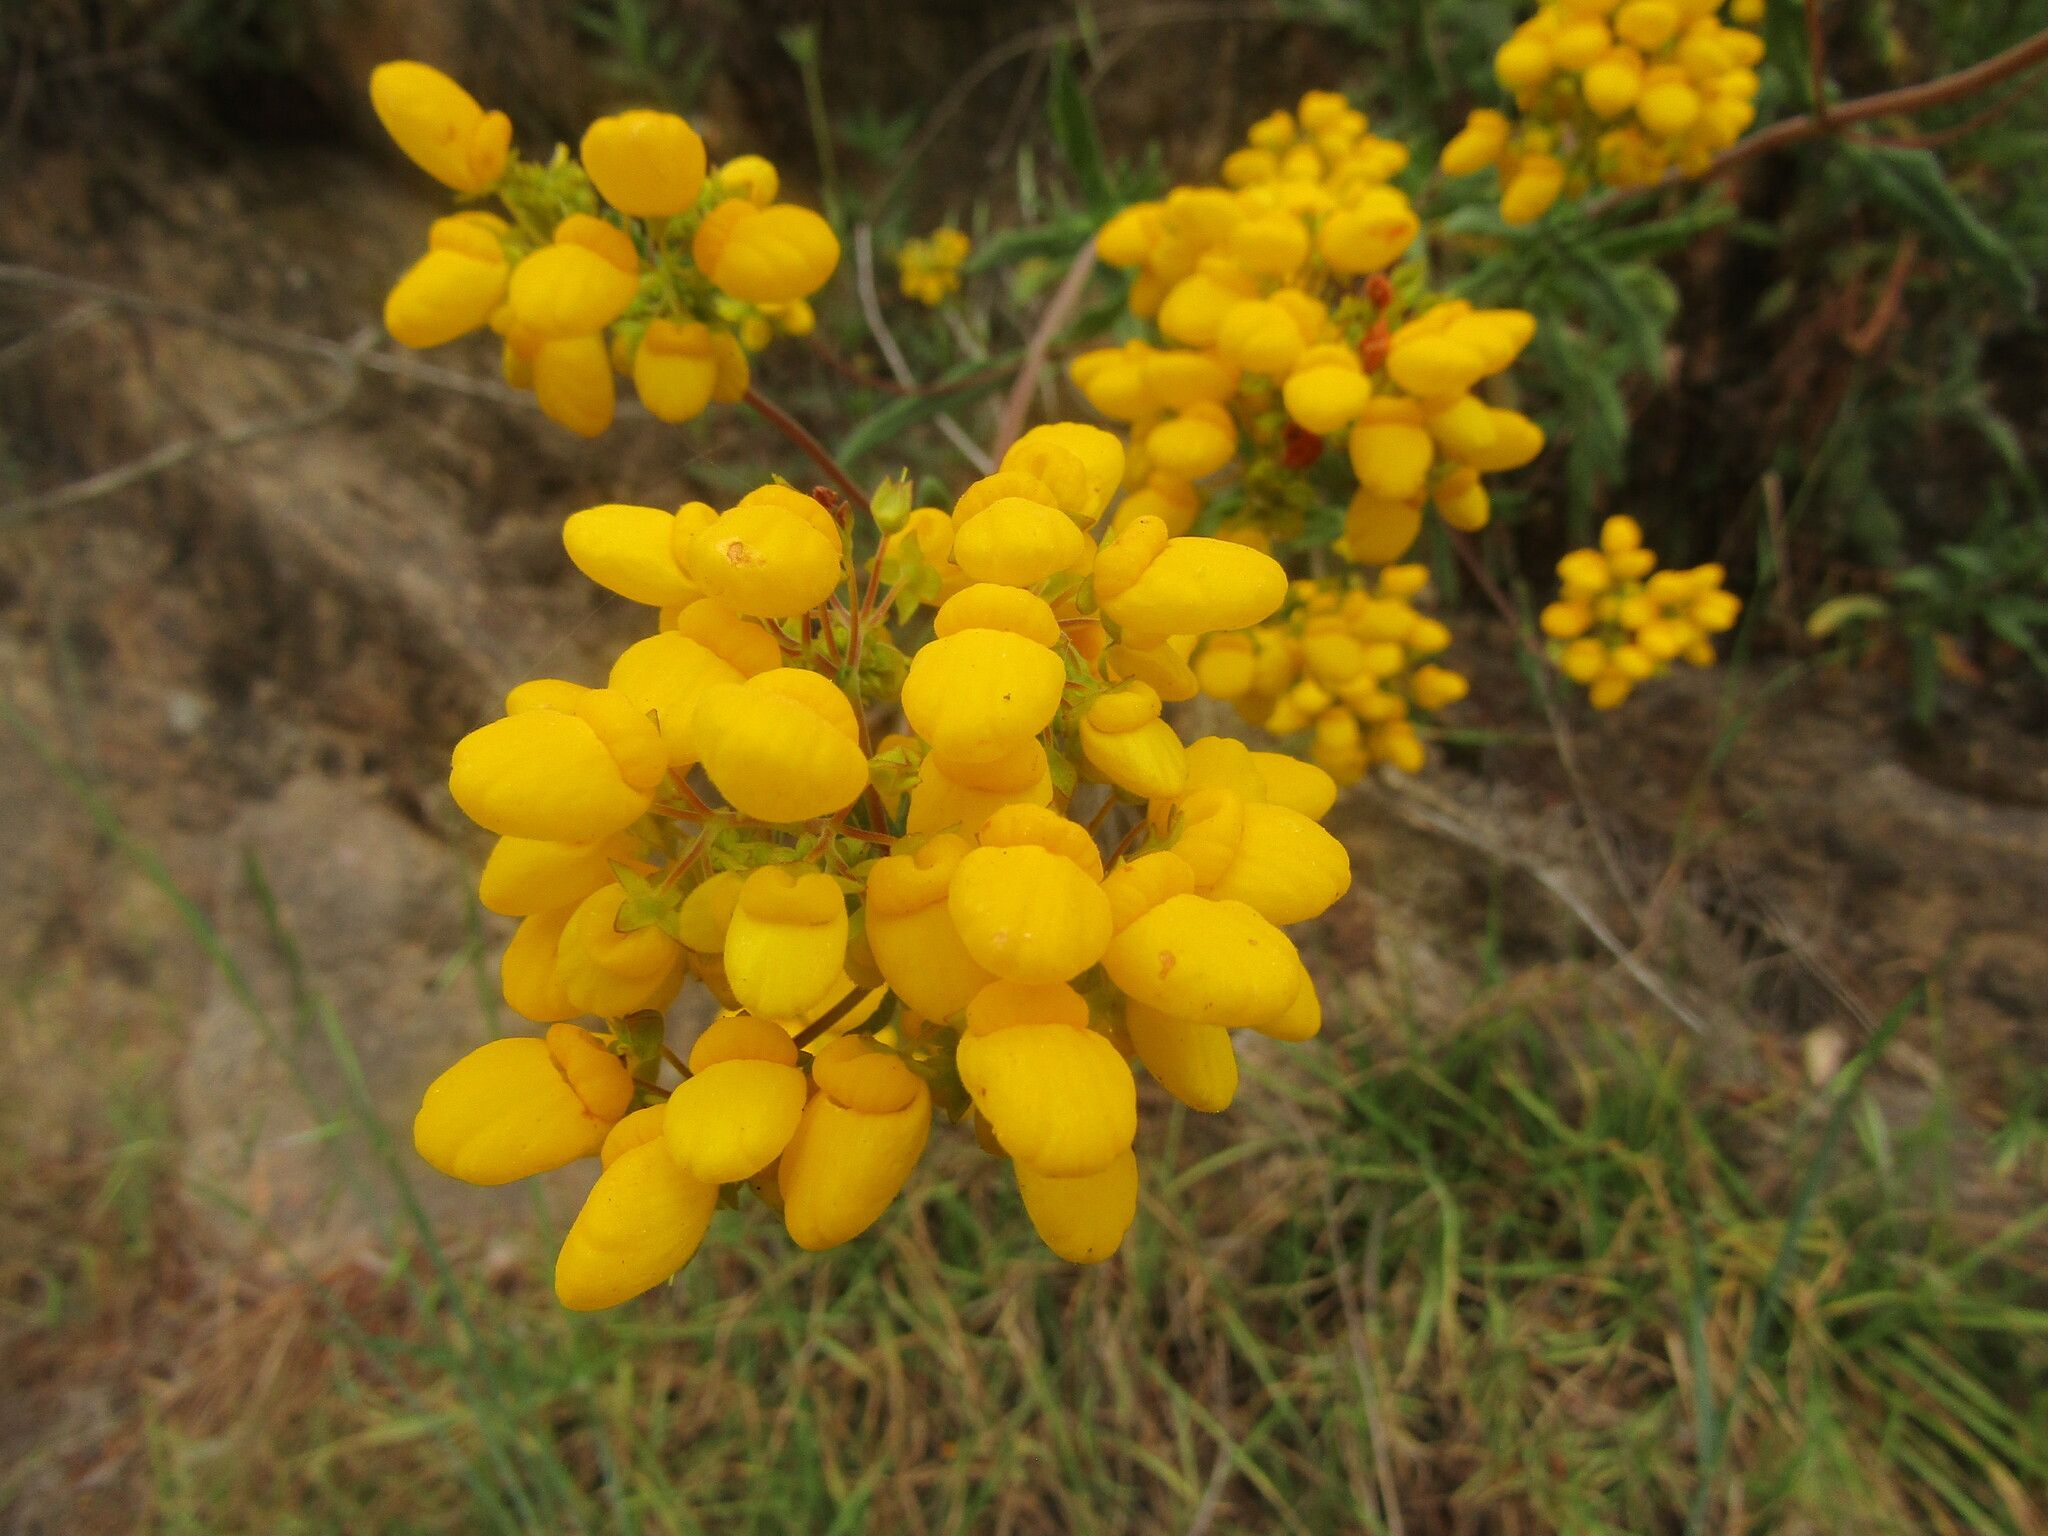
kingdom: Plantae
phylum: Tracheophyta
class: Magnoliopsida
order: Lamiales
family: Calceolariaceae
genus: Calceolaria
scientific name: Calceolaria integrifolia
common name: Bush slipperwort
